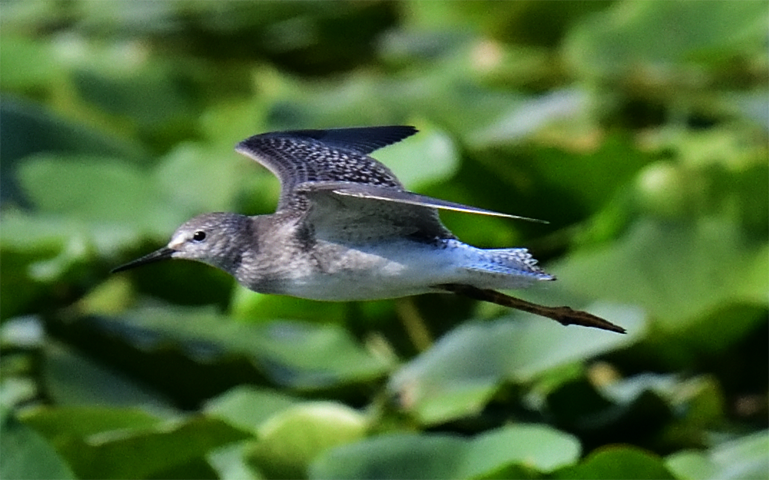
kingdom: Animalia
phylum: Chordata
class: Aves
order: Charadriiformes
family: Scolopacidae
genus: Tringa
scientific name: Tringa flavipes
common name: Lesser yellowlegs
